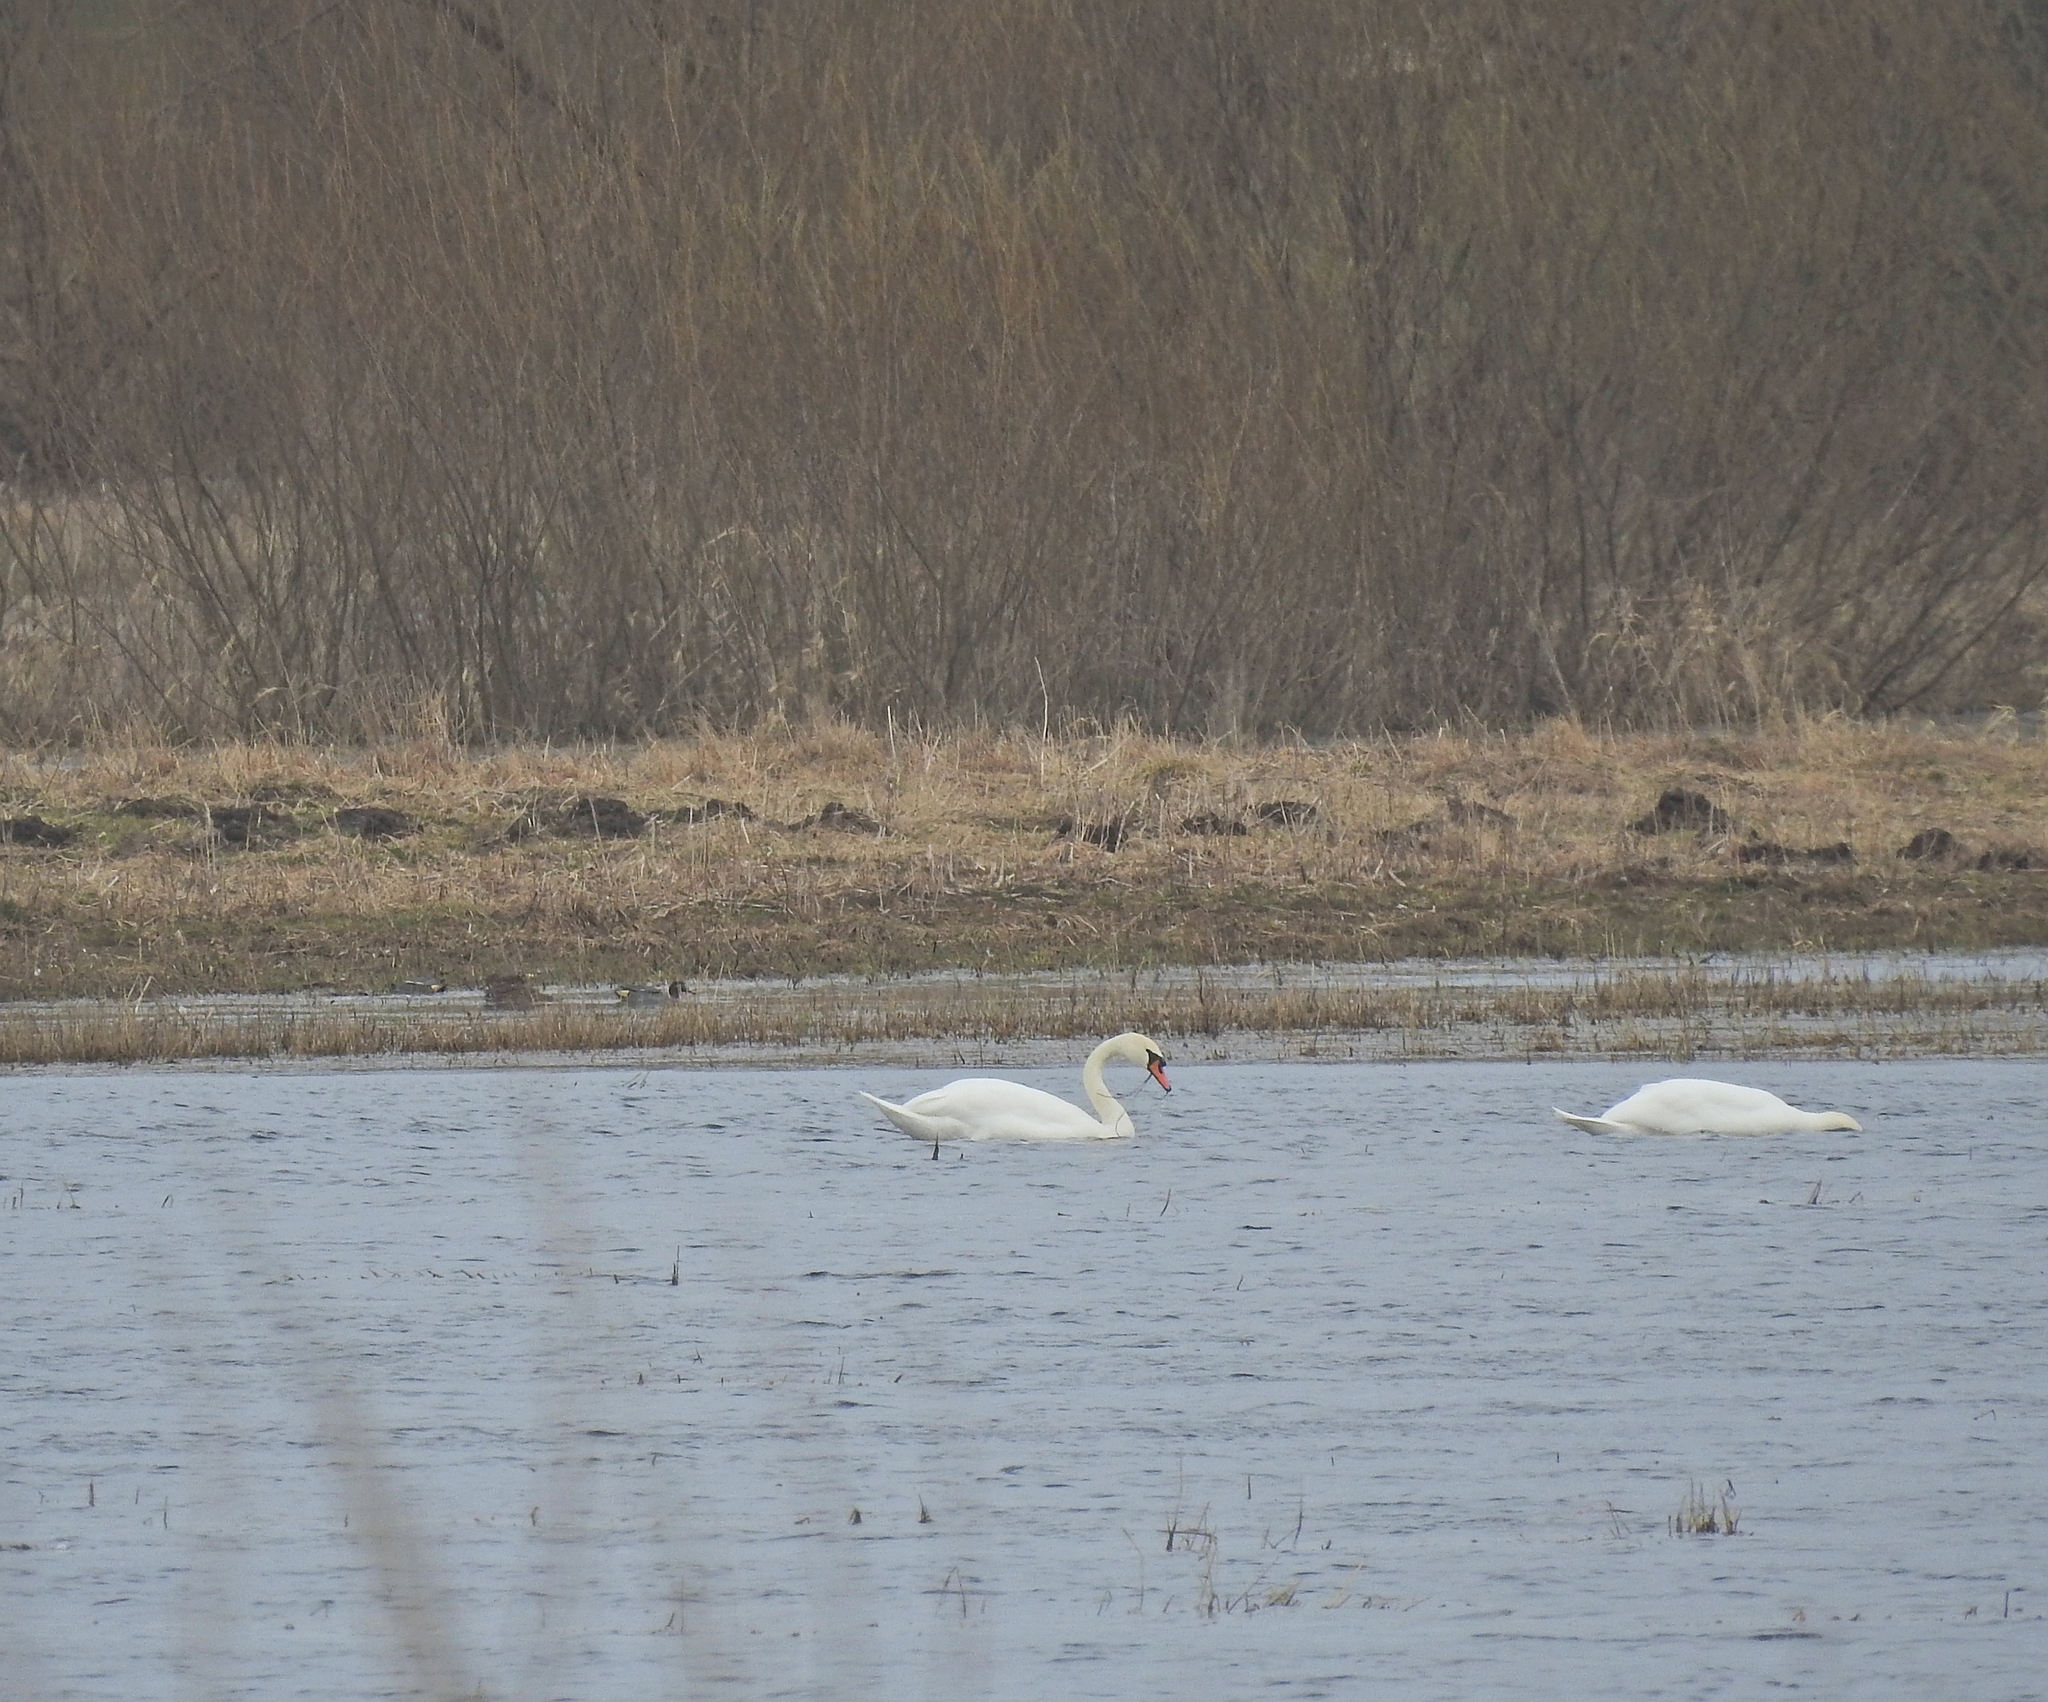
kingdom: Animalia
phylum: Chordata
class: Aves
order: Anseriformes
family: Anatidae
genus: Cygnus
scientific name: Cygnus olor
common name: Mute swan
